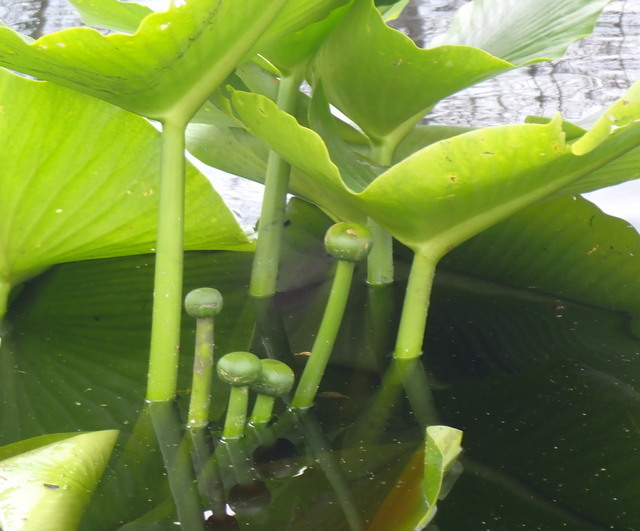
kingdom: Plantae
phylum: Tracheophyta
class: Magnoliopsida
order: Nymphaeales
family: Nymphaeaceae
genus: Nuphar
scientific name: Nuphar advena
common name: Spatter-dock
